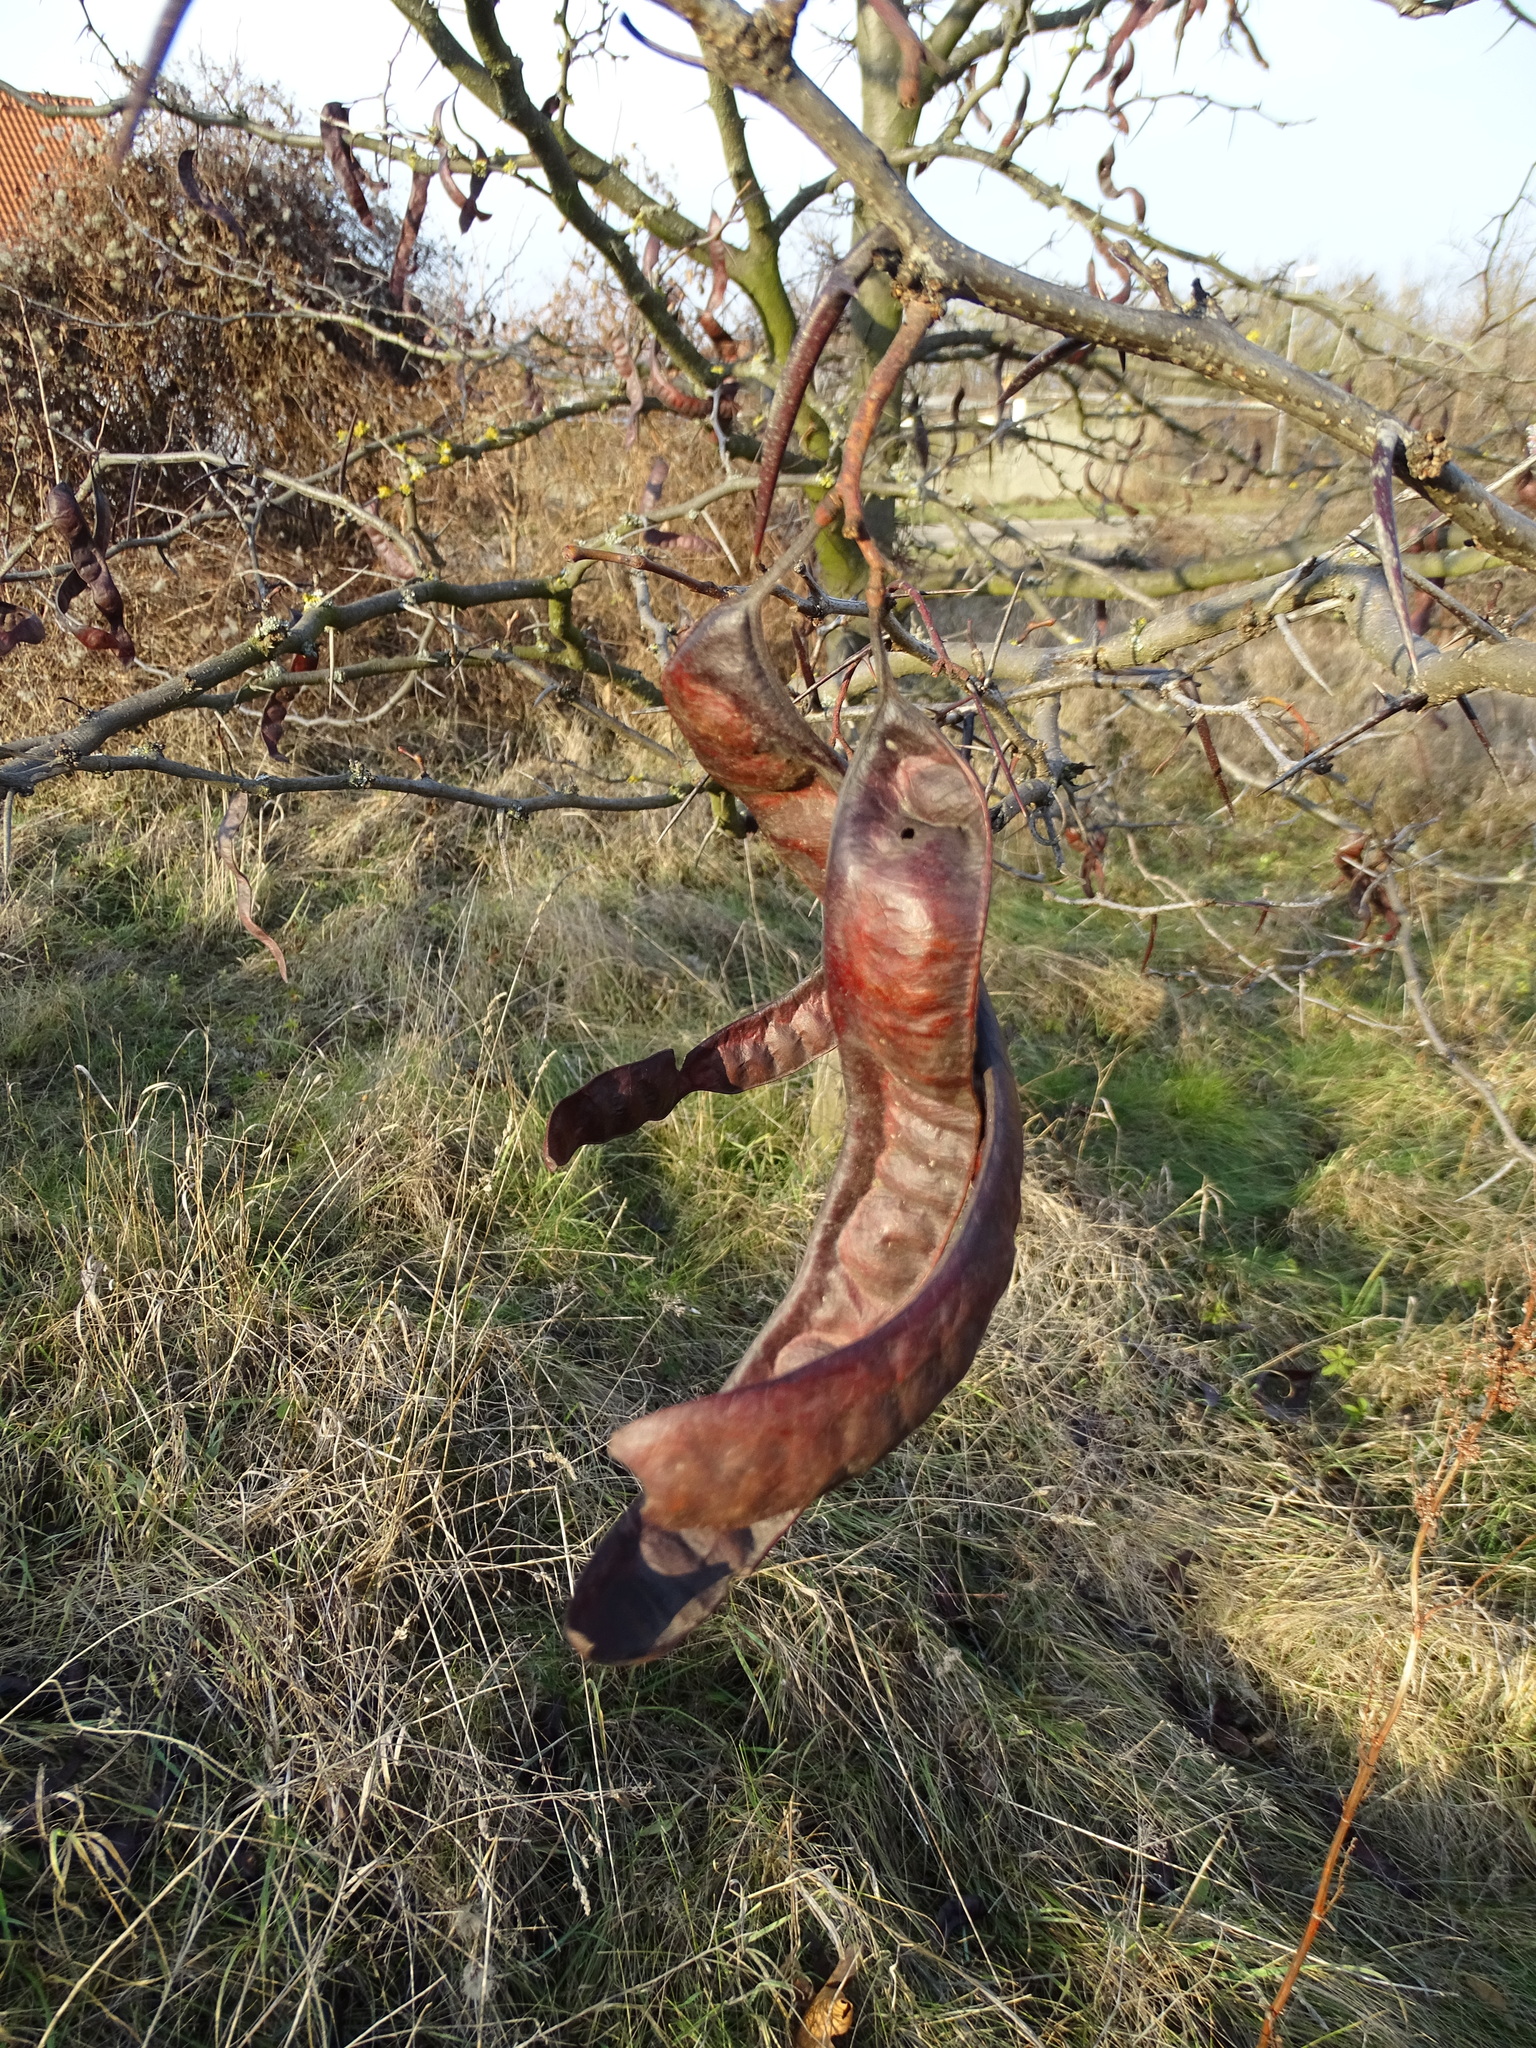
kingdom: Plantae
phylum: Tracheophyta
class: Magnoliopsida
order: Fabales
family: Fabaceae
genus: Gleditsia
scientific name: Gleditsia triacanthos
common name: Common honeylocust
